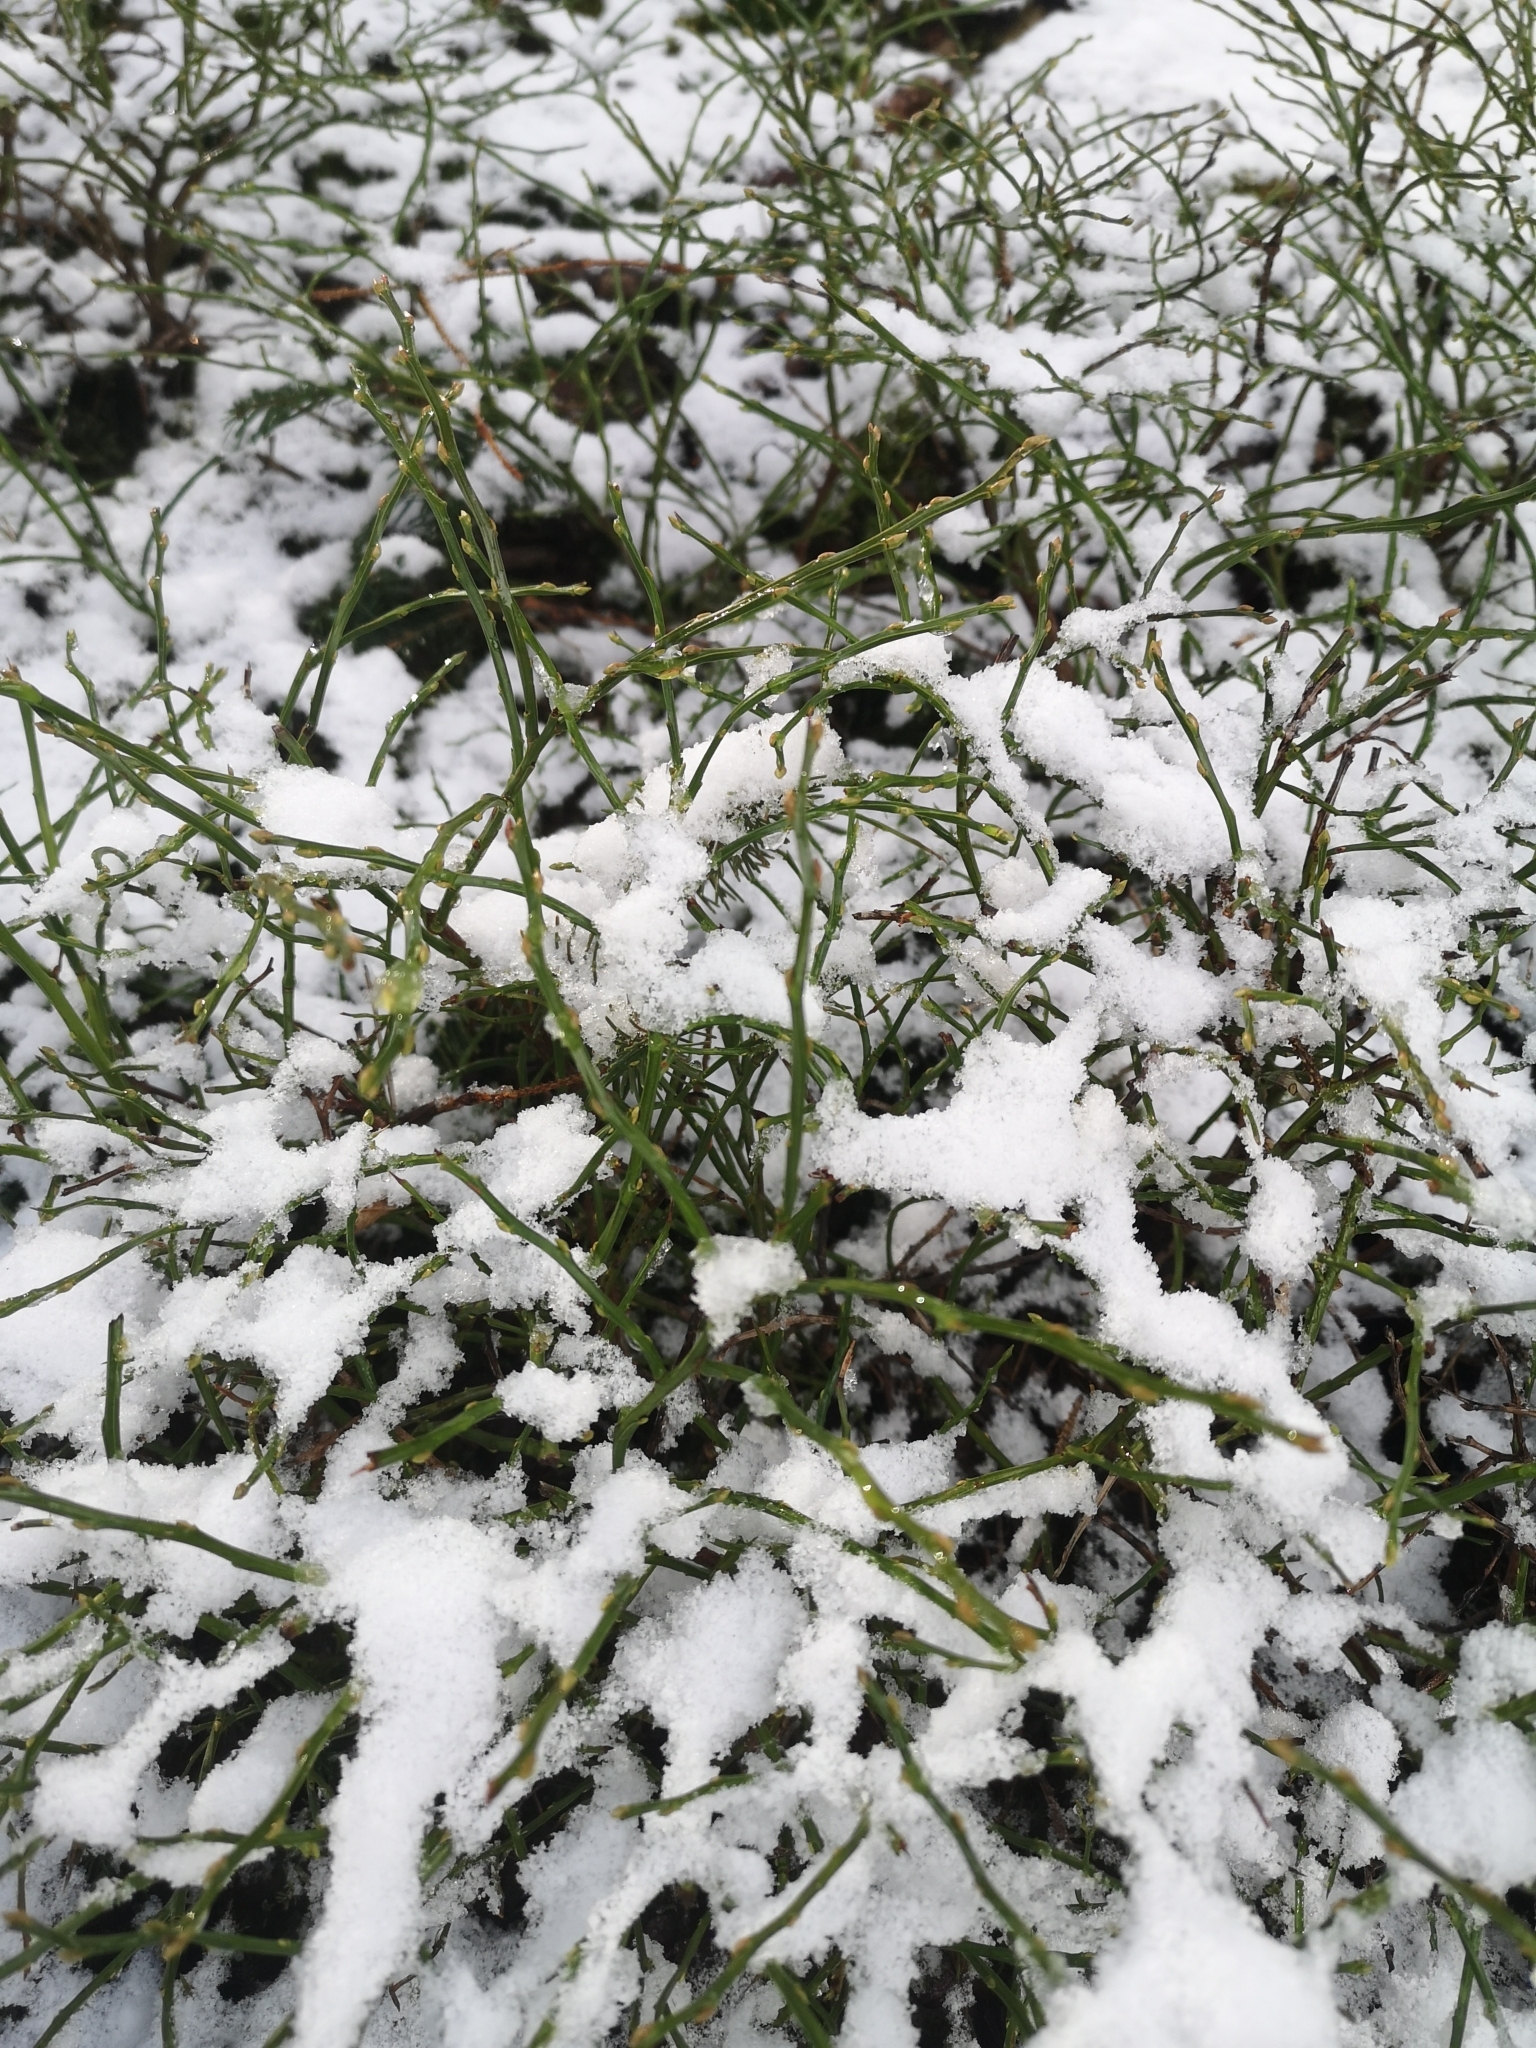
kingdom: Plantae
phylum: Tracheophyta
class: Magnoliopsida
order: Ericales
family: Ericaceae
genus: Vaccinium
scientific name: Vaccinium myrtillus
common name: Bilberry
